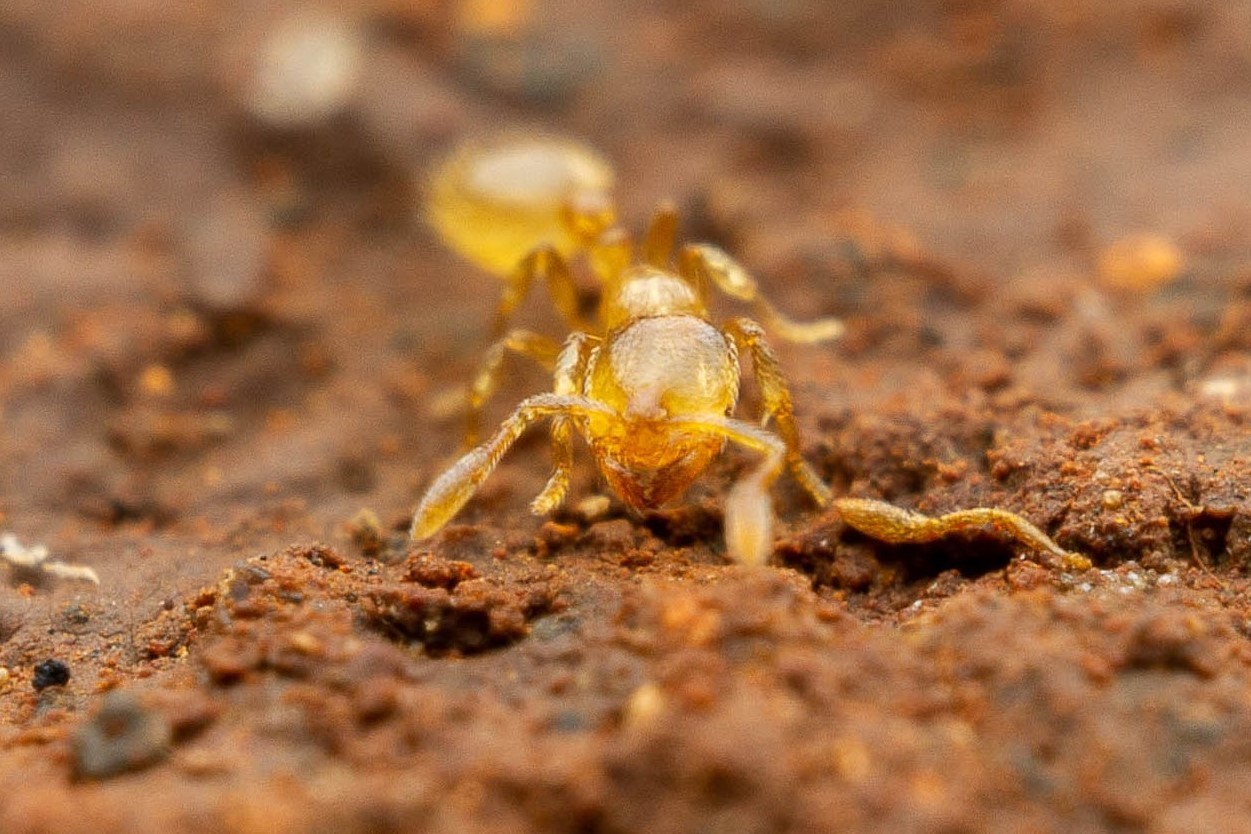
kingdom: Animalia
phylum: Arthropoda
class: Insecta
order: Hymenoptera
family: Formicidae
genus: Solenopsis
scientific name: Solenopsis
